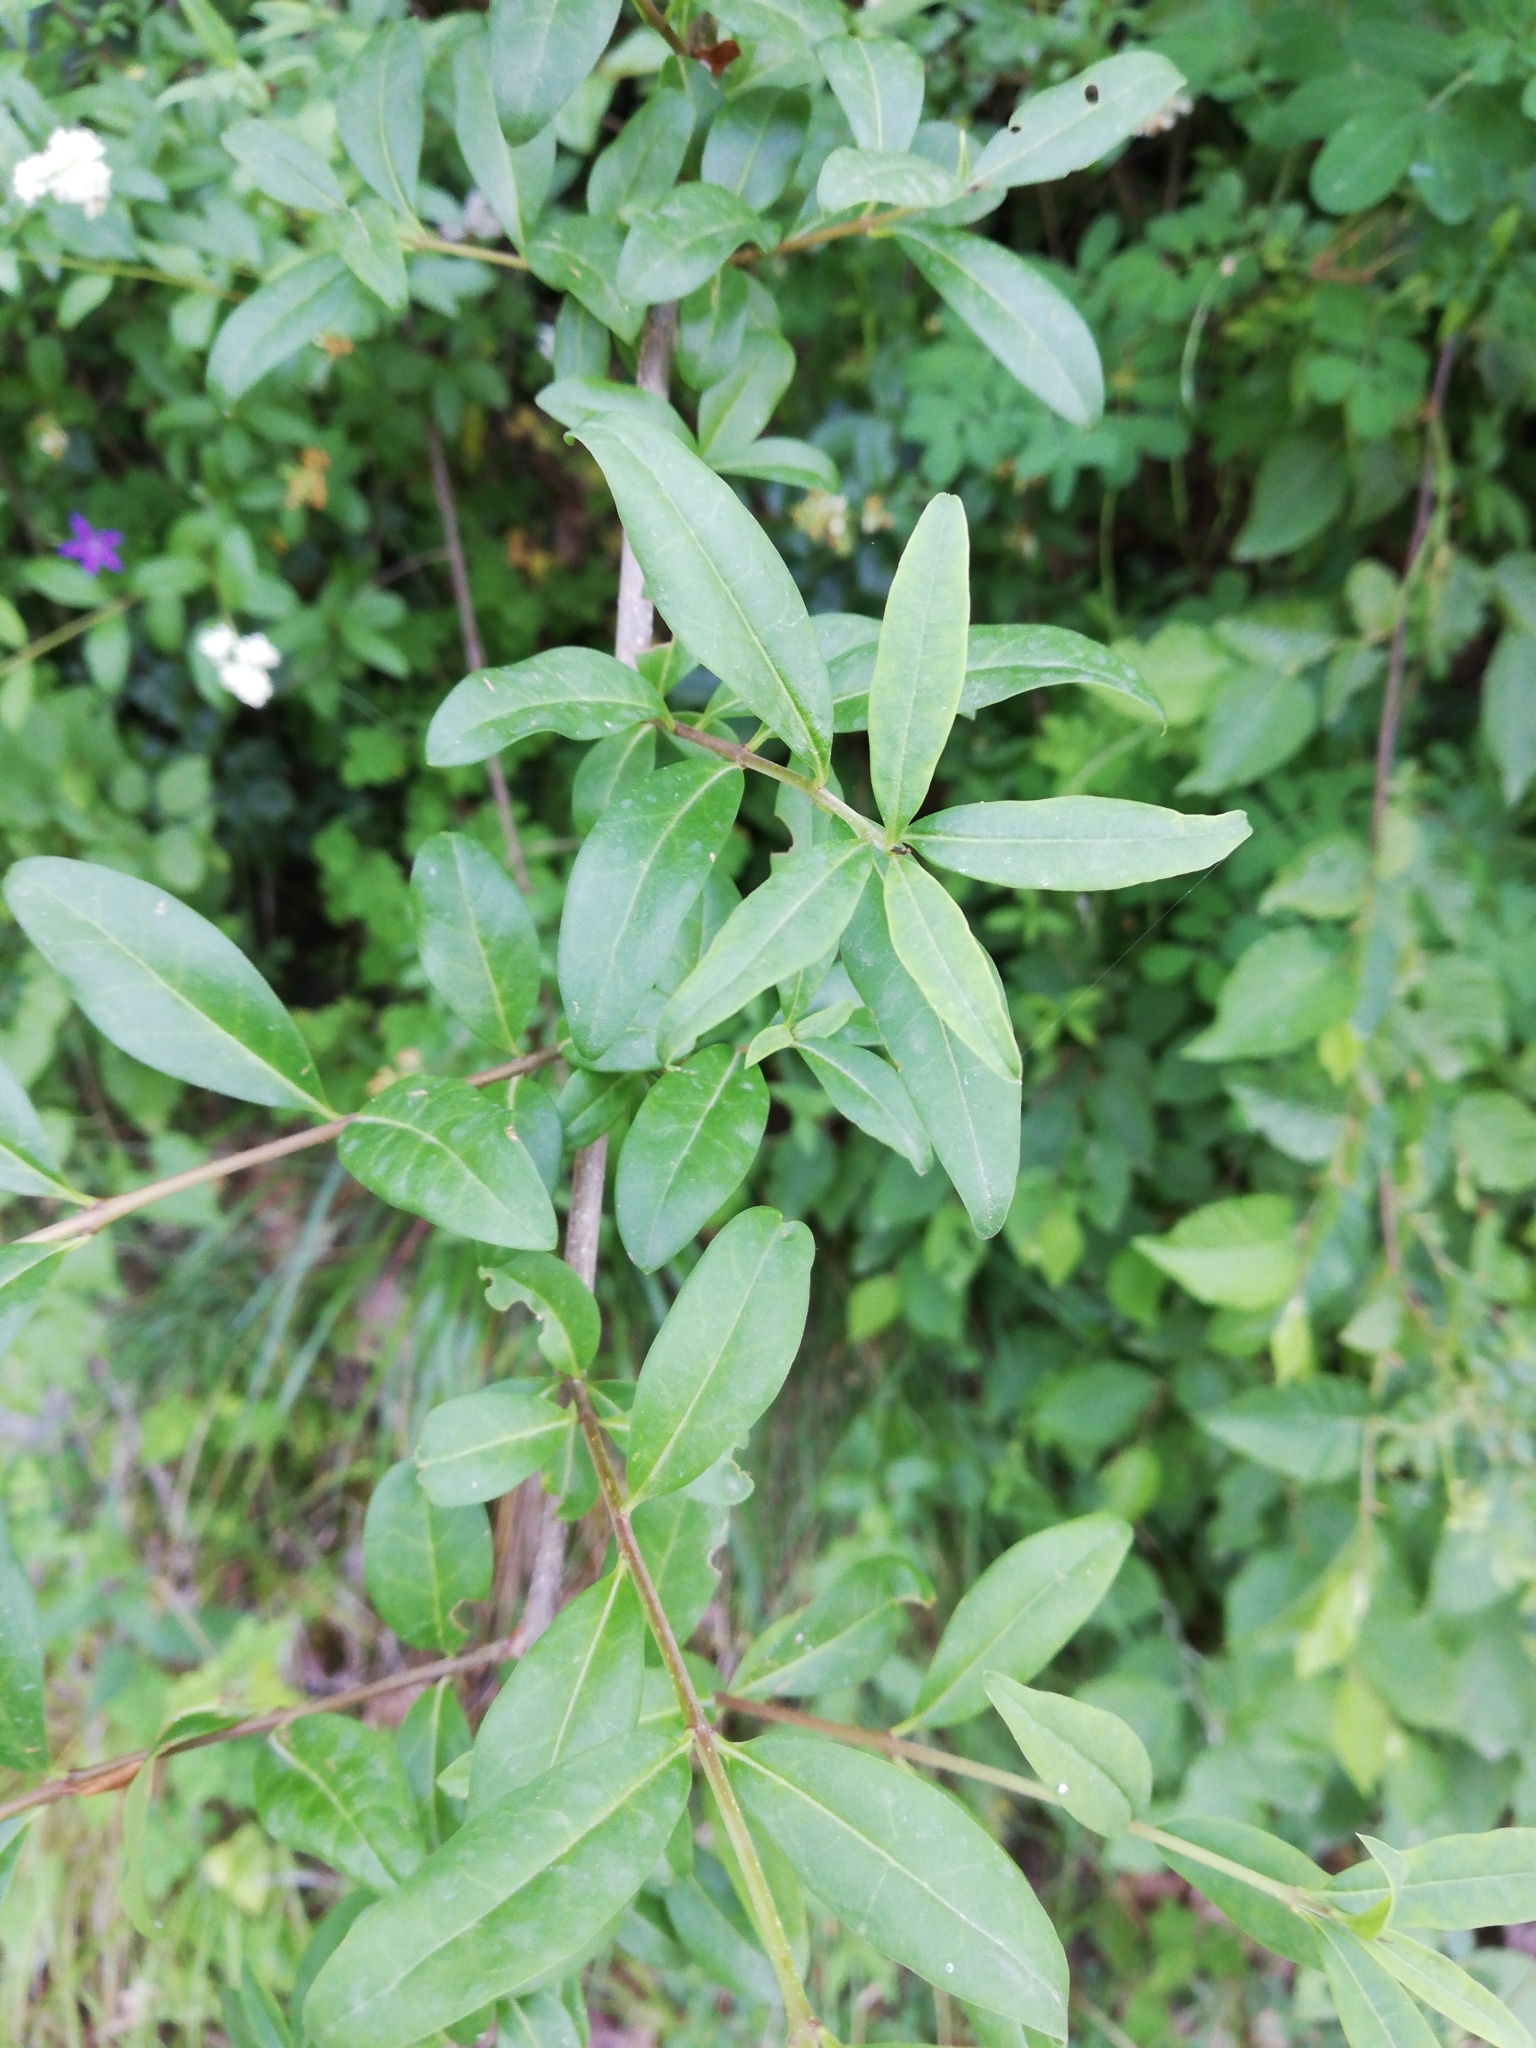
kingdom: Plantae
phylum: Tracheophyta
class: Magnoliopsida
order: Lamiales
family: Oleaceae
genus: Ligustrum
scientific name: Ligustrum vulgare
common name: Wild privet
